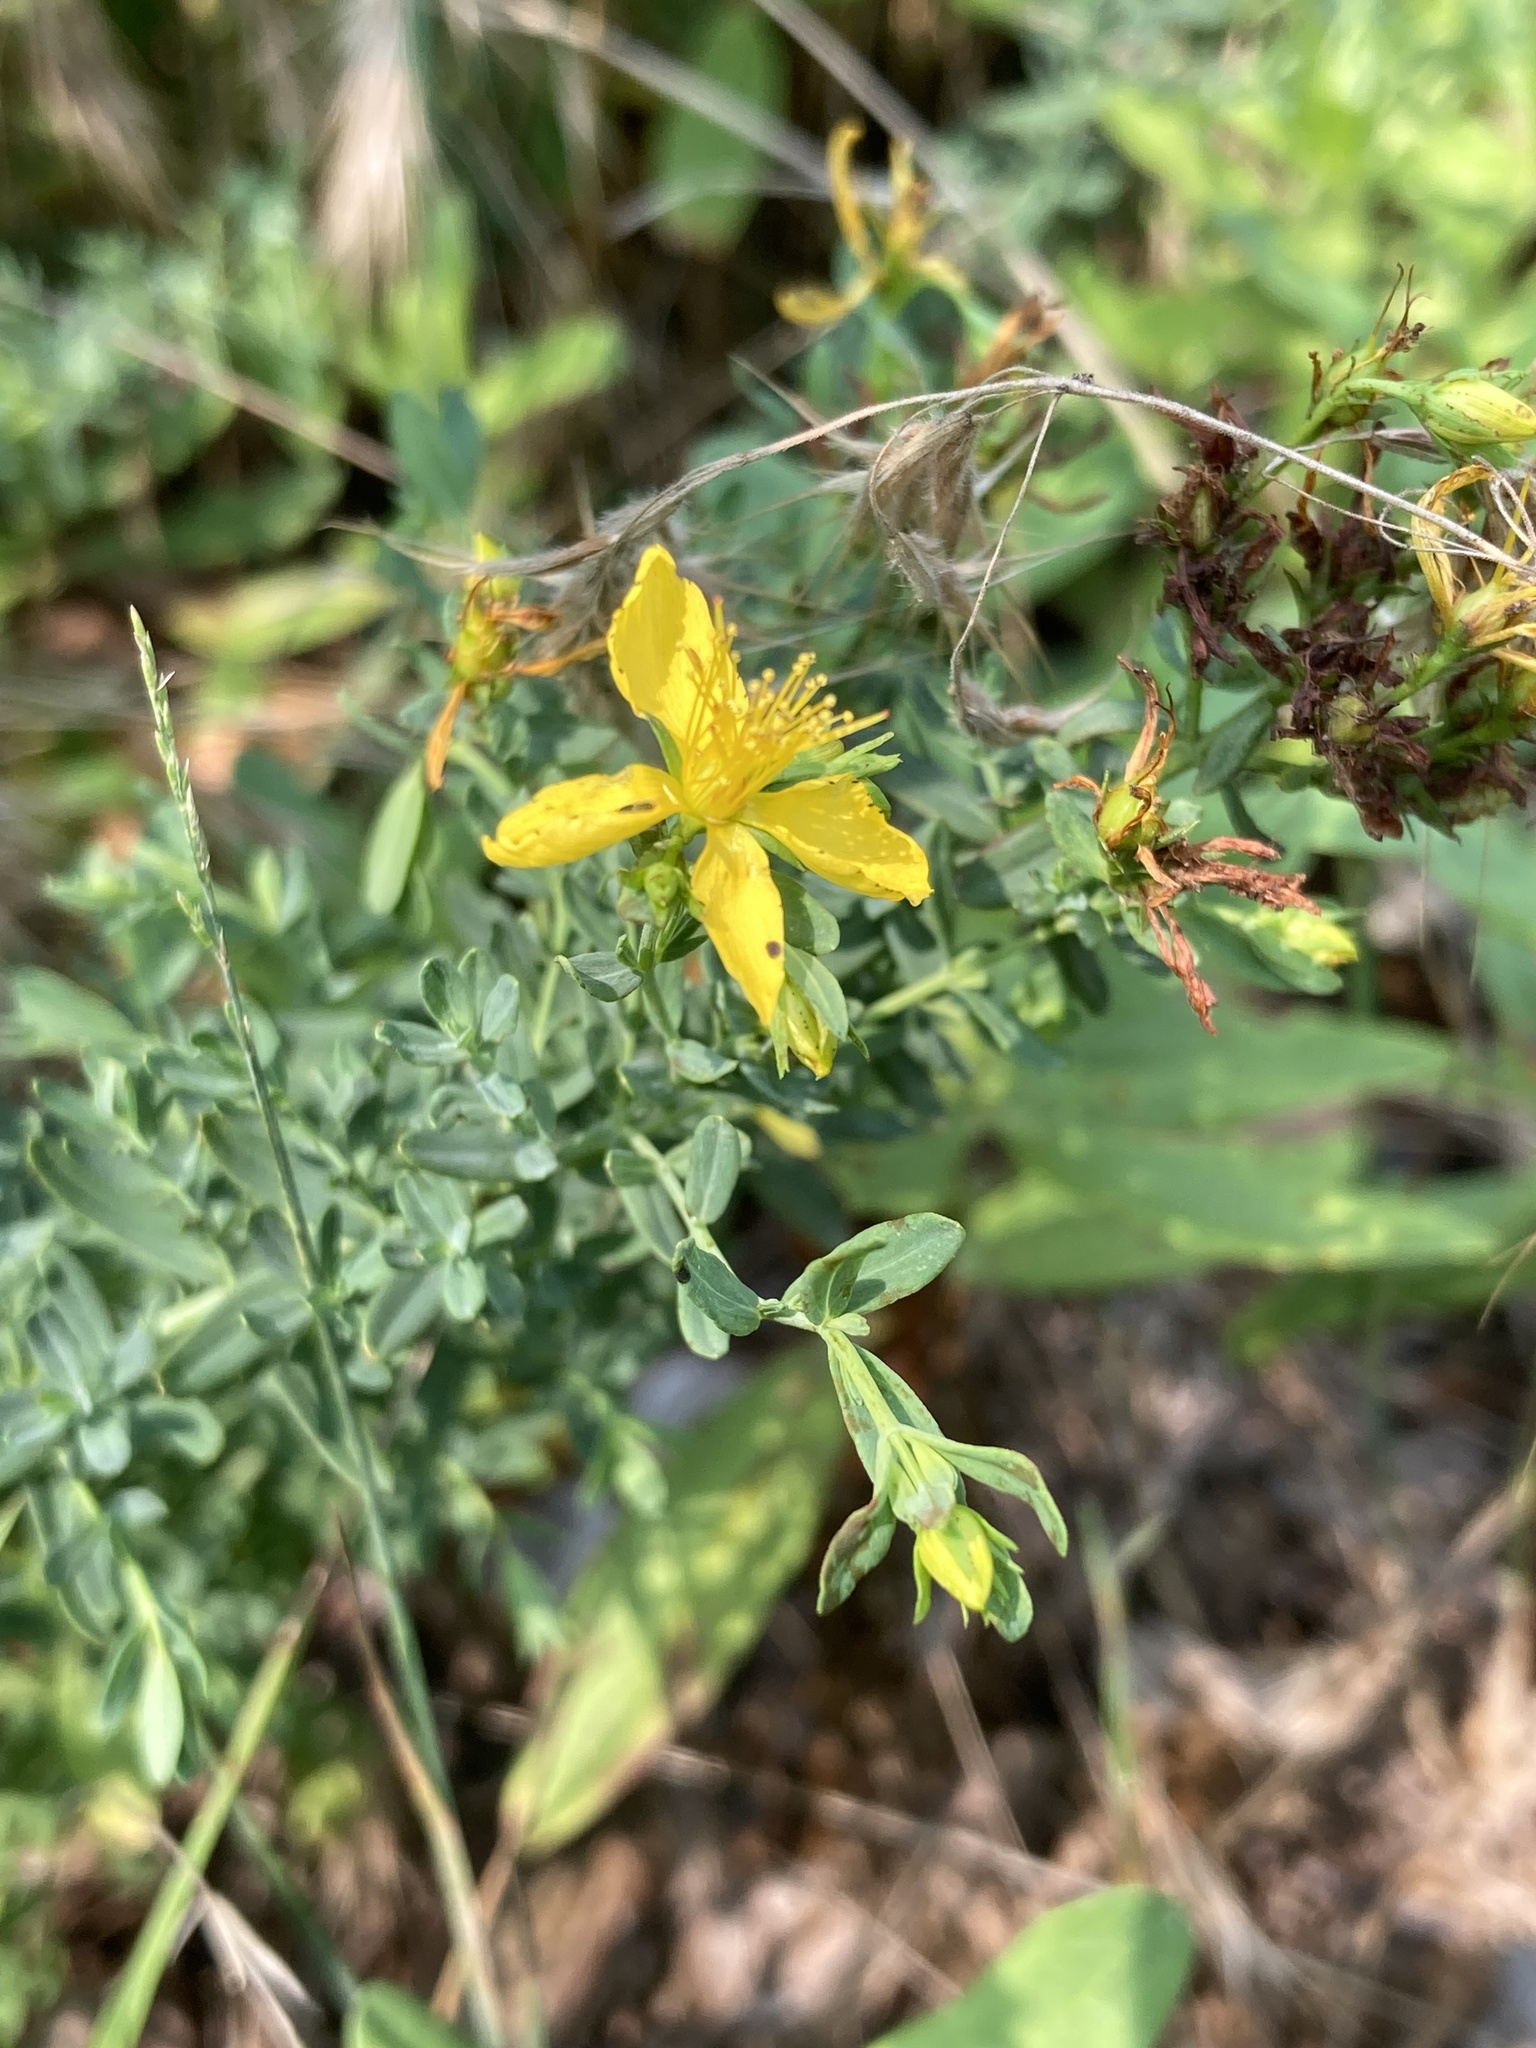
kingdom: Plantae
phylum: Tracheophyta
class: Magnoliopsida
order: Malpighiales
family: Hypericaceae
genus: Hypericum
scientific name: Hypericum perforatum
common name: Common st. johnswort
